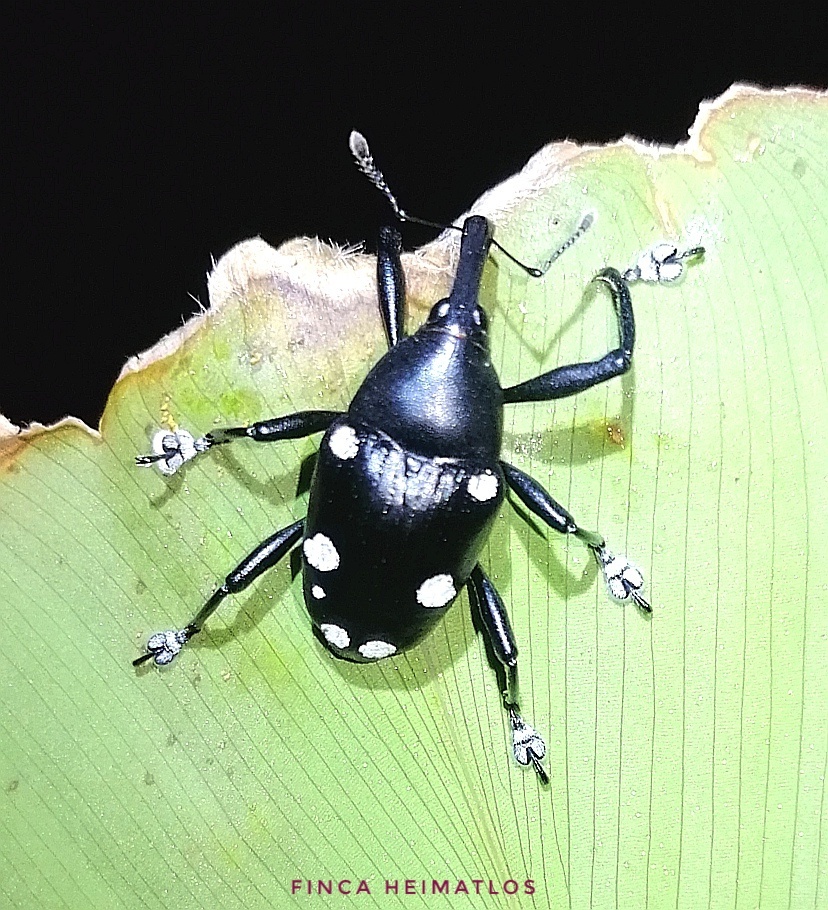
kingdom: Animalia
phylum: Arthropoda
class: Insecta
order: Coleoptera
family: Curculionidae
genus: Cholus
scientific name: Cholus megaspilus
